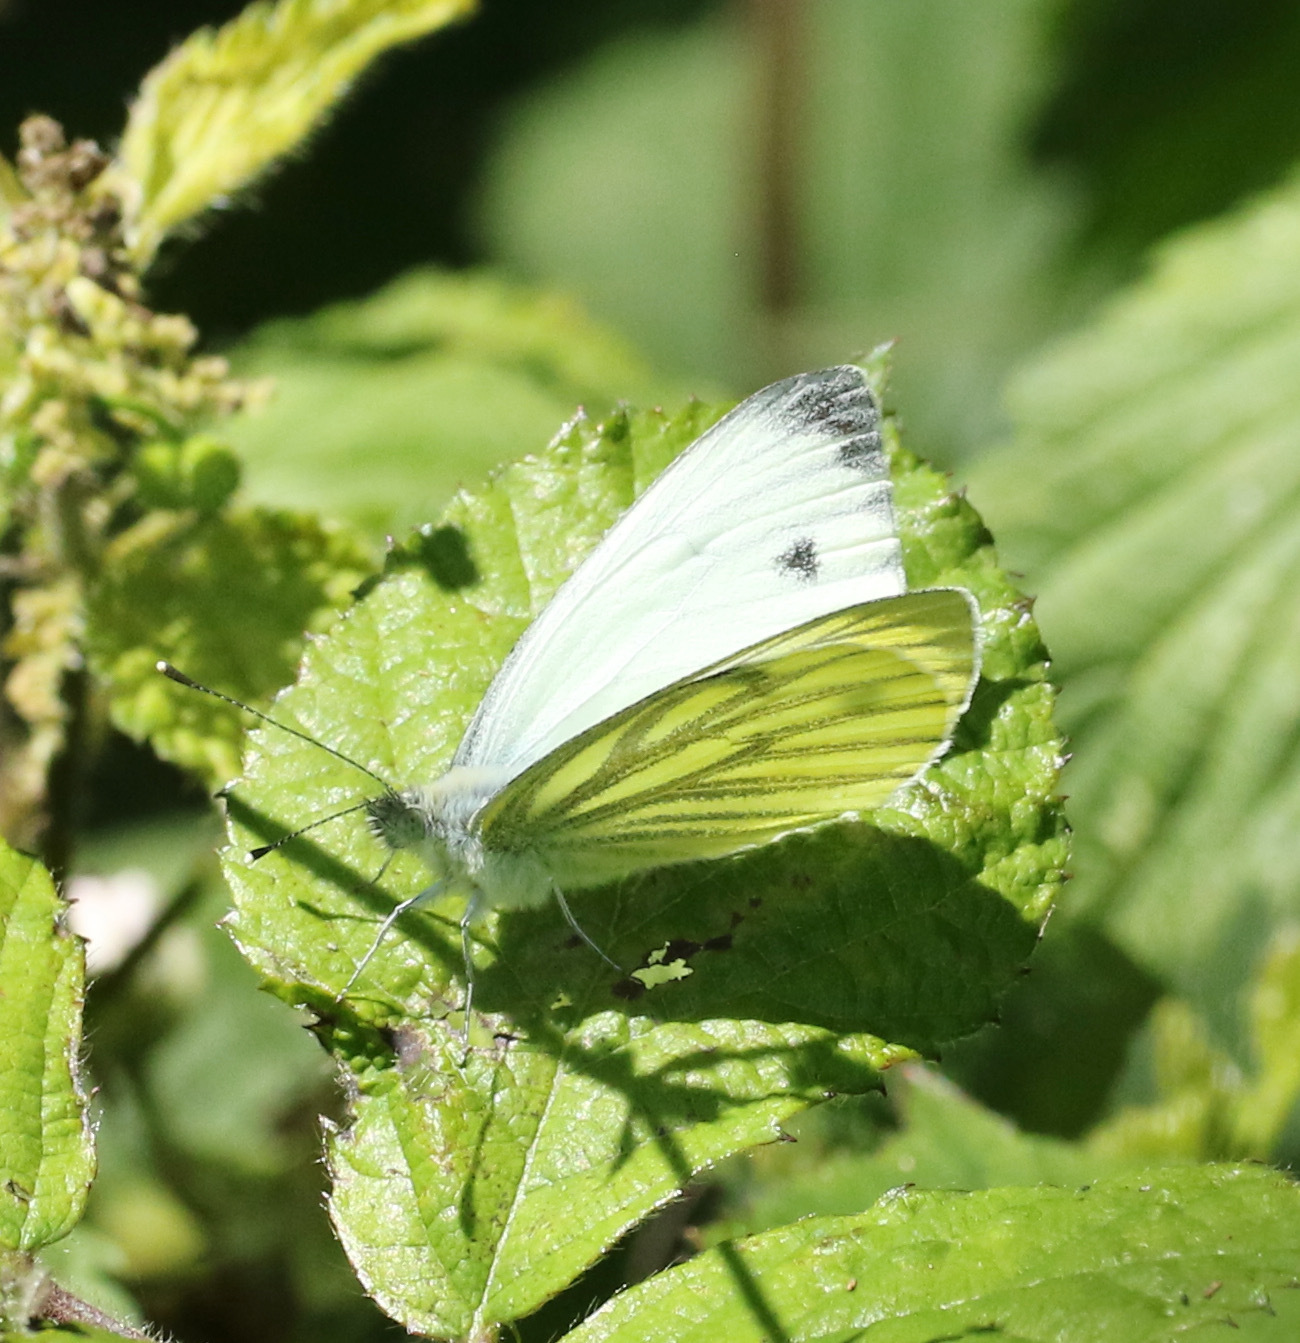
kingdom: Animalia
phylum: Arthropoda
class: Insecta
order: Lepidoptera
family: Pieridae
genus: Pieris
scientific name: Pieris napi
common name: Green-veined white
